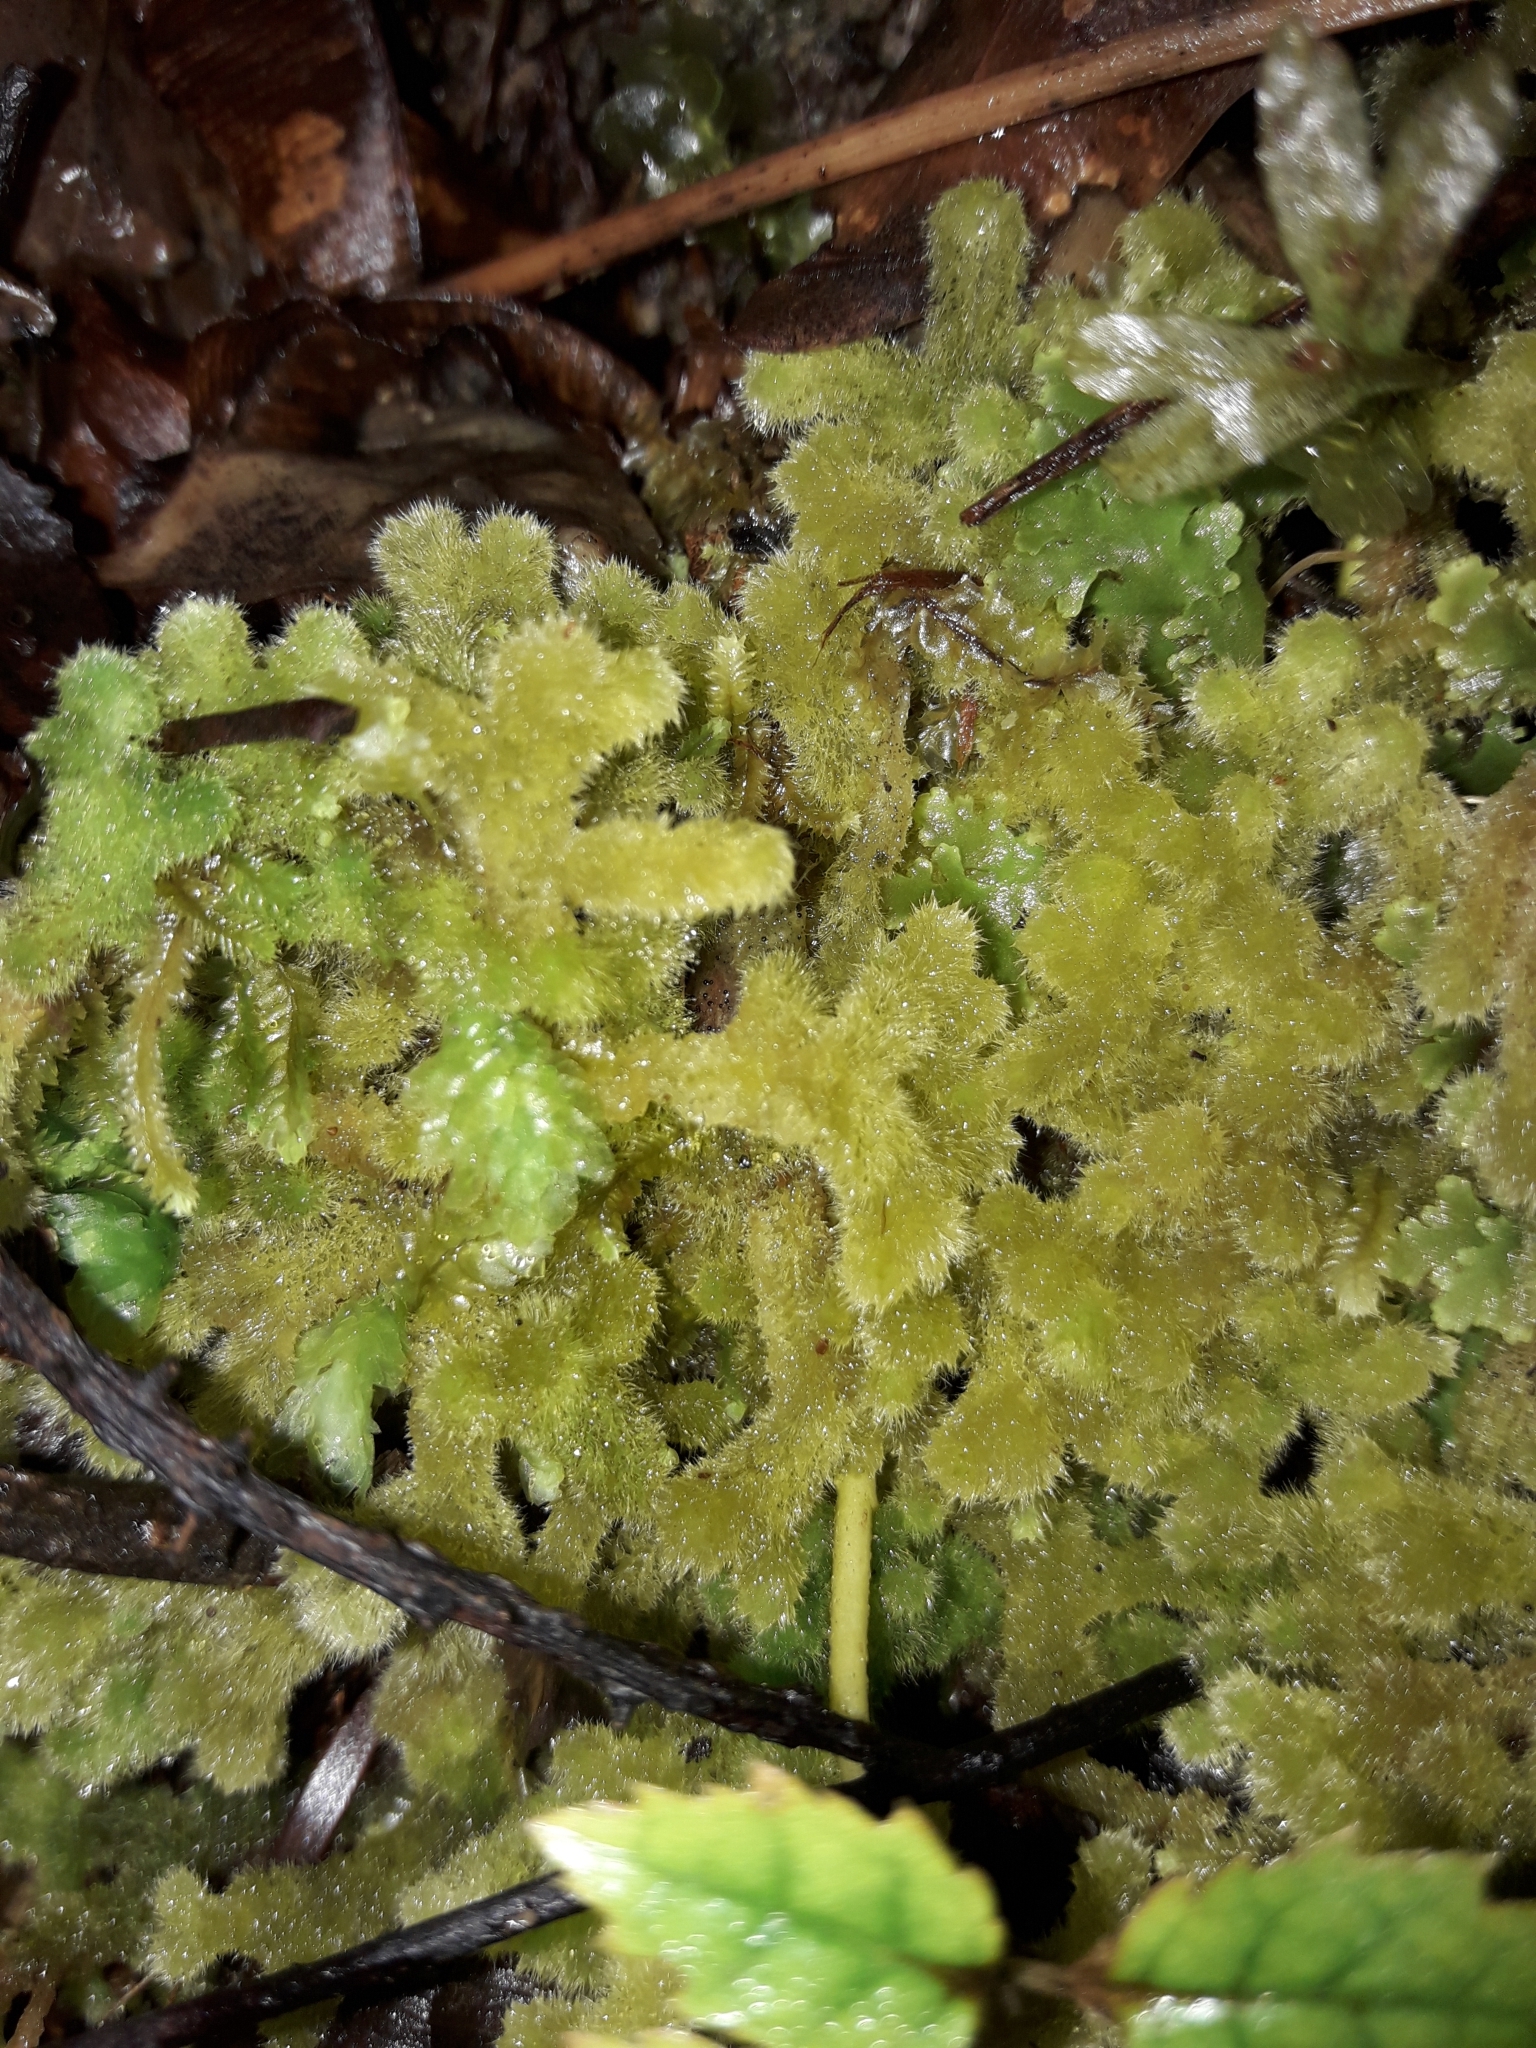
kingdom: Plantae
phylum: Marchantiophyta
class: Jungermanniopsida
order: Jungermanniales
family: Trichocoleaceae
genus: Leiomitra
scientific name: Leiomitra lanata
